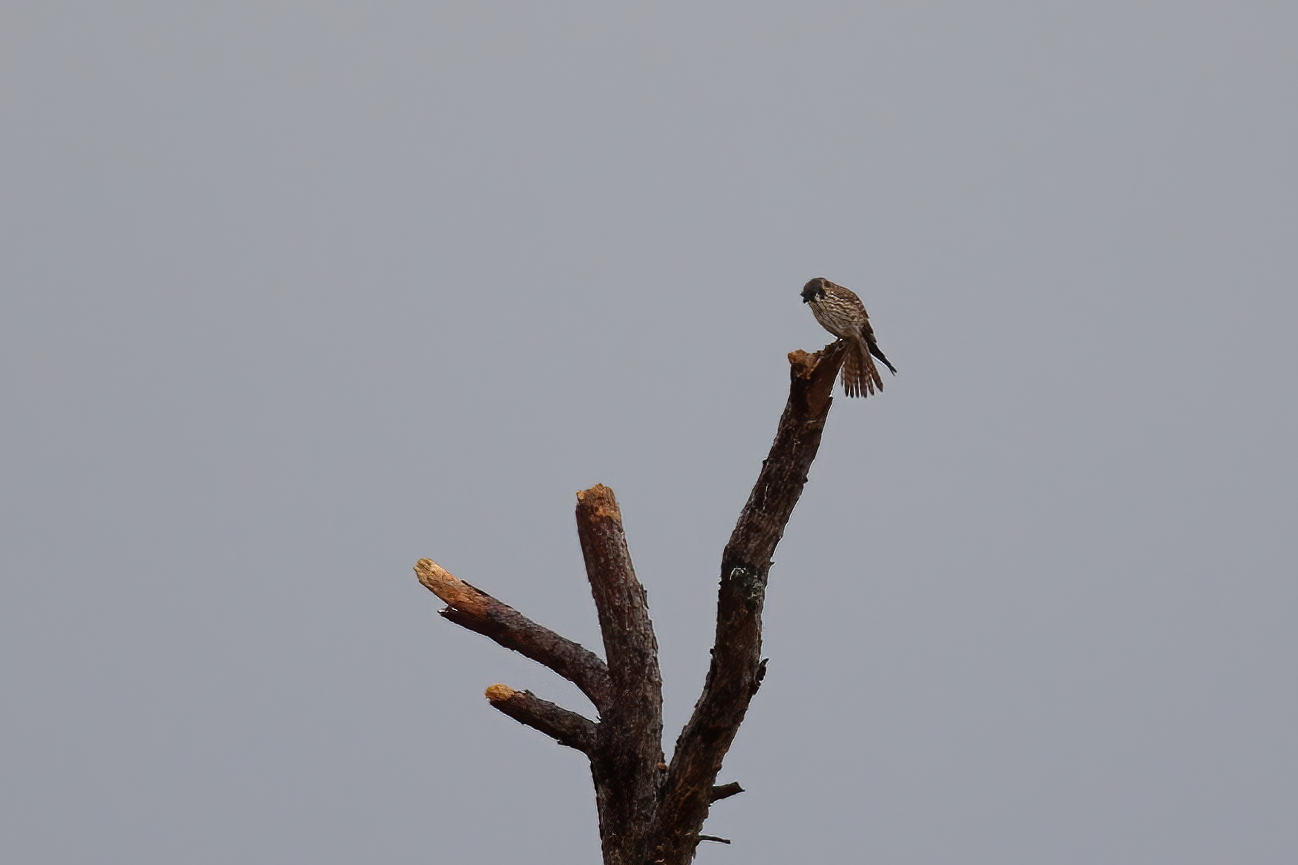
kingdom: Animalia
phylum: Chordata
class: Aves
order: Falconiformes
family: Falconidae
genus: Falco
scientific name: Falco sparverius
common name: American kestrel
